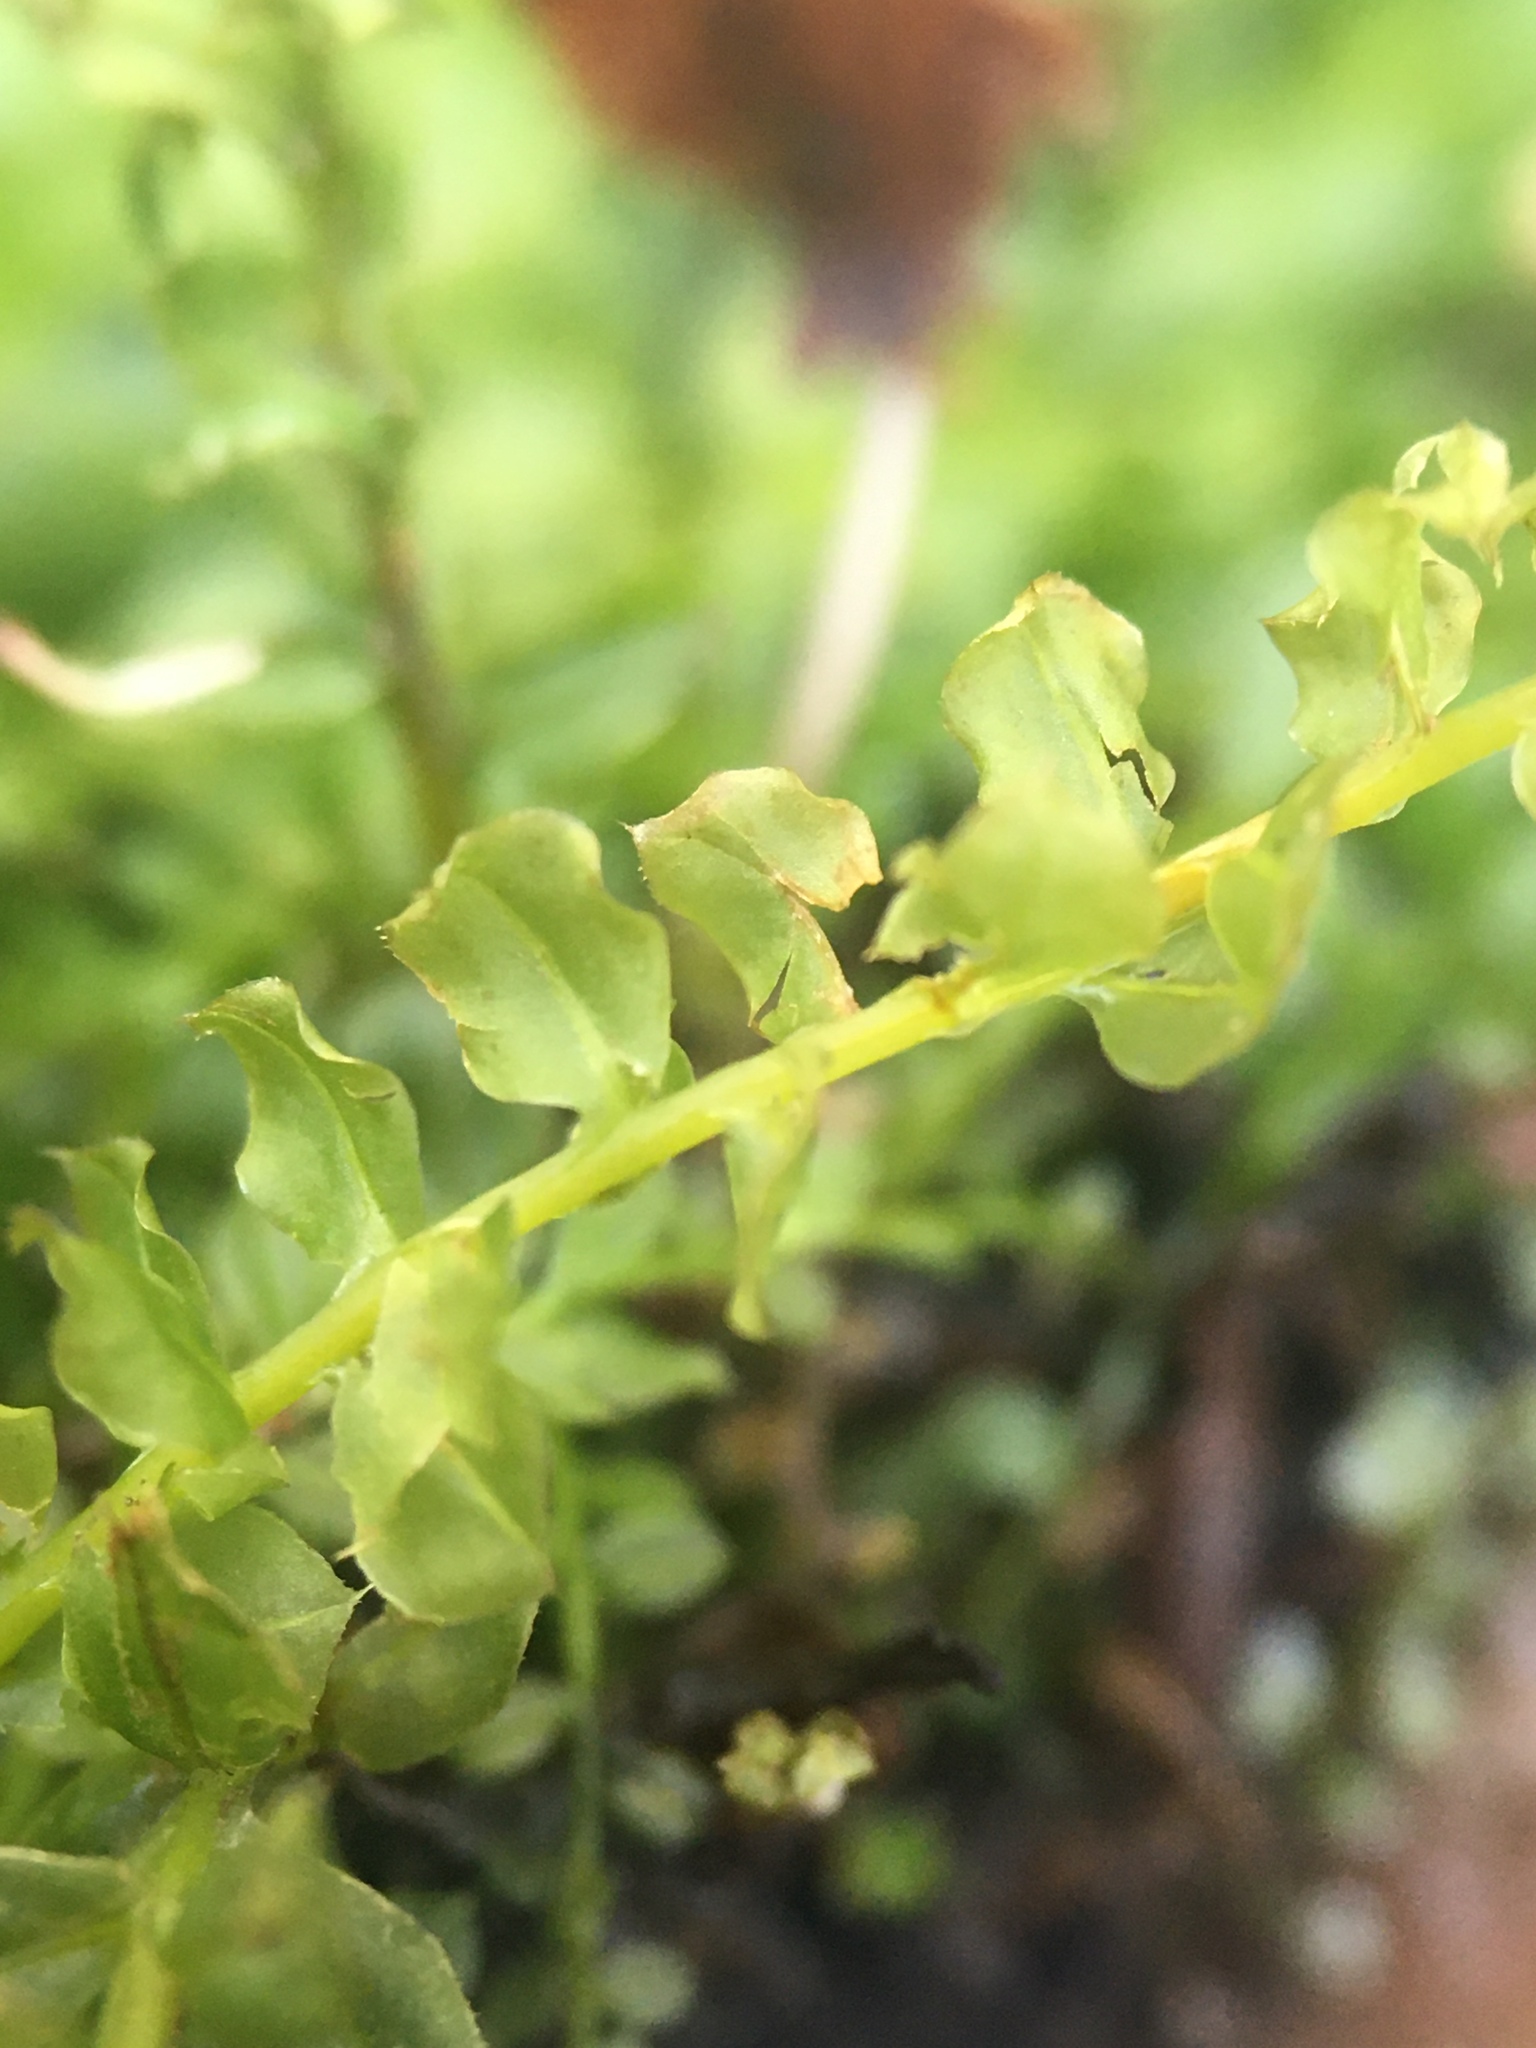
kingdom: Plantae
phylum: Bryophyta
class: Bryopsida
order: Bryales
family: Mniaceae
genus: Plagiomnium
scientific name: Plagiomnium cuspidatum
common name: Woodsy leafy moss
